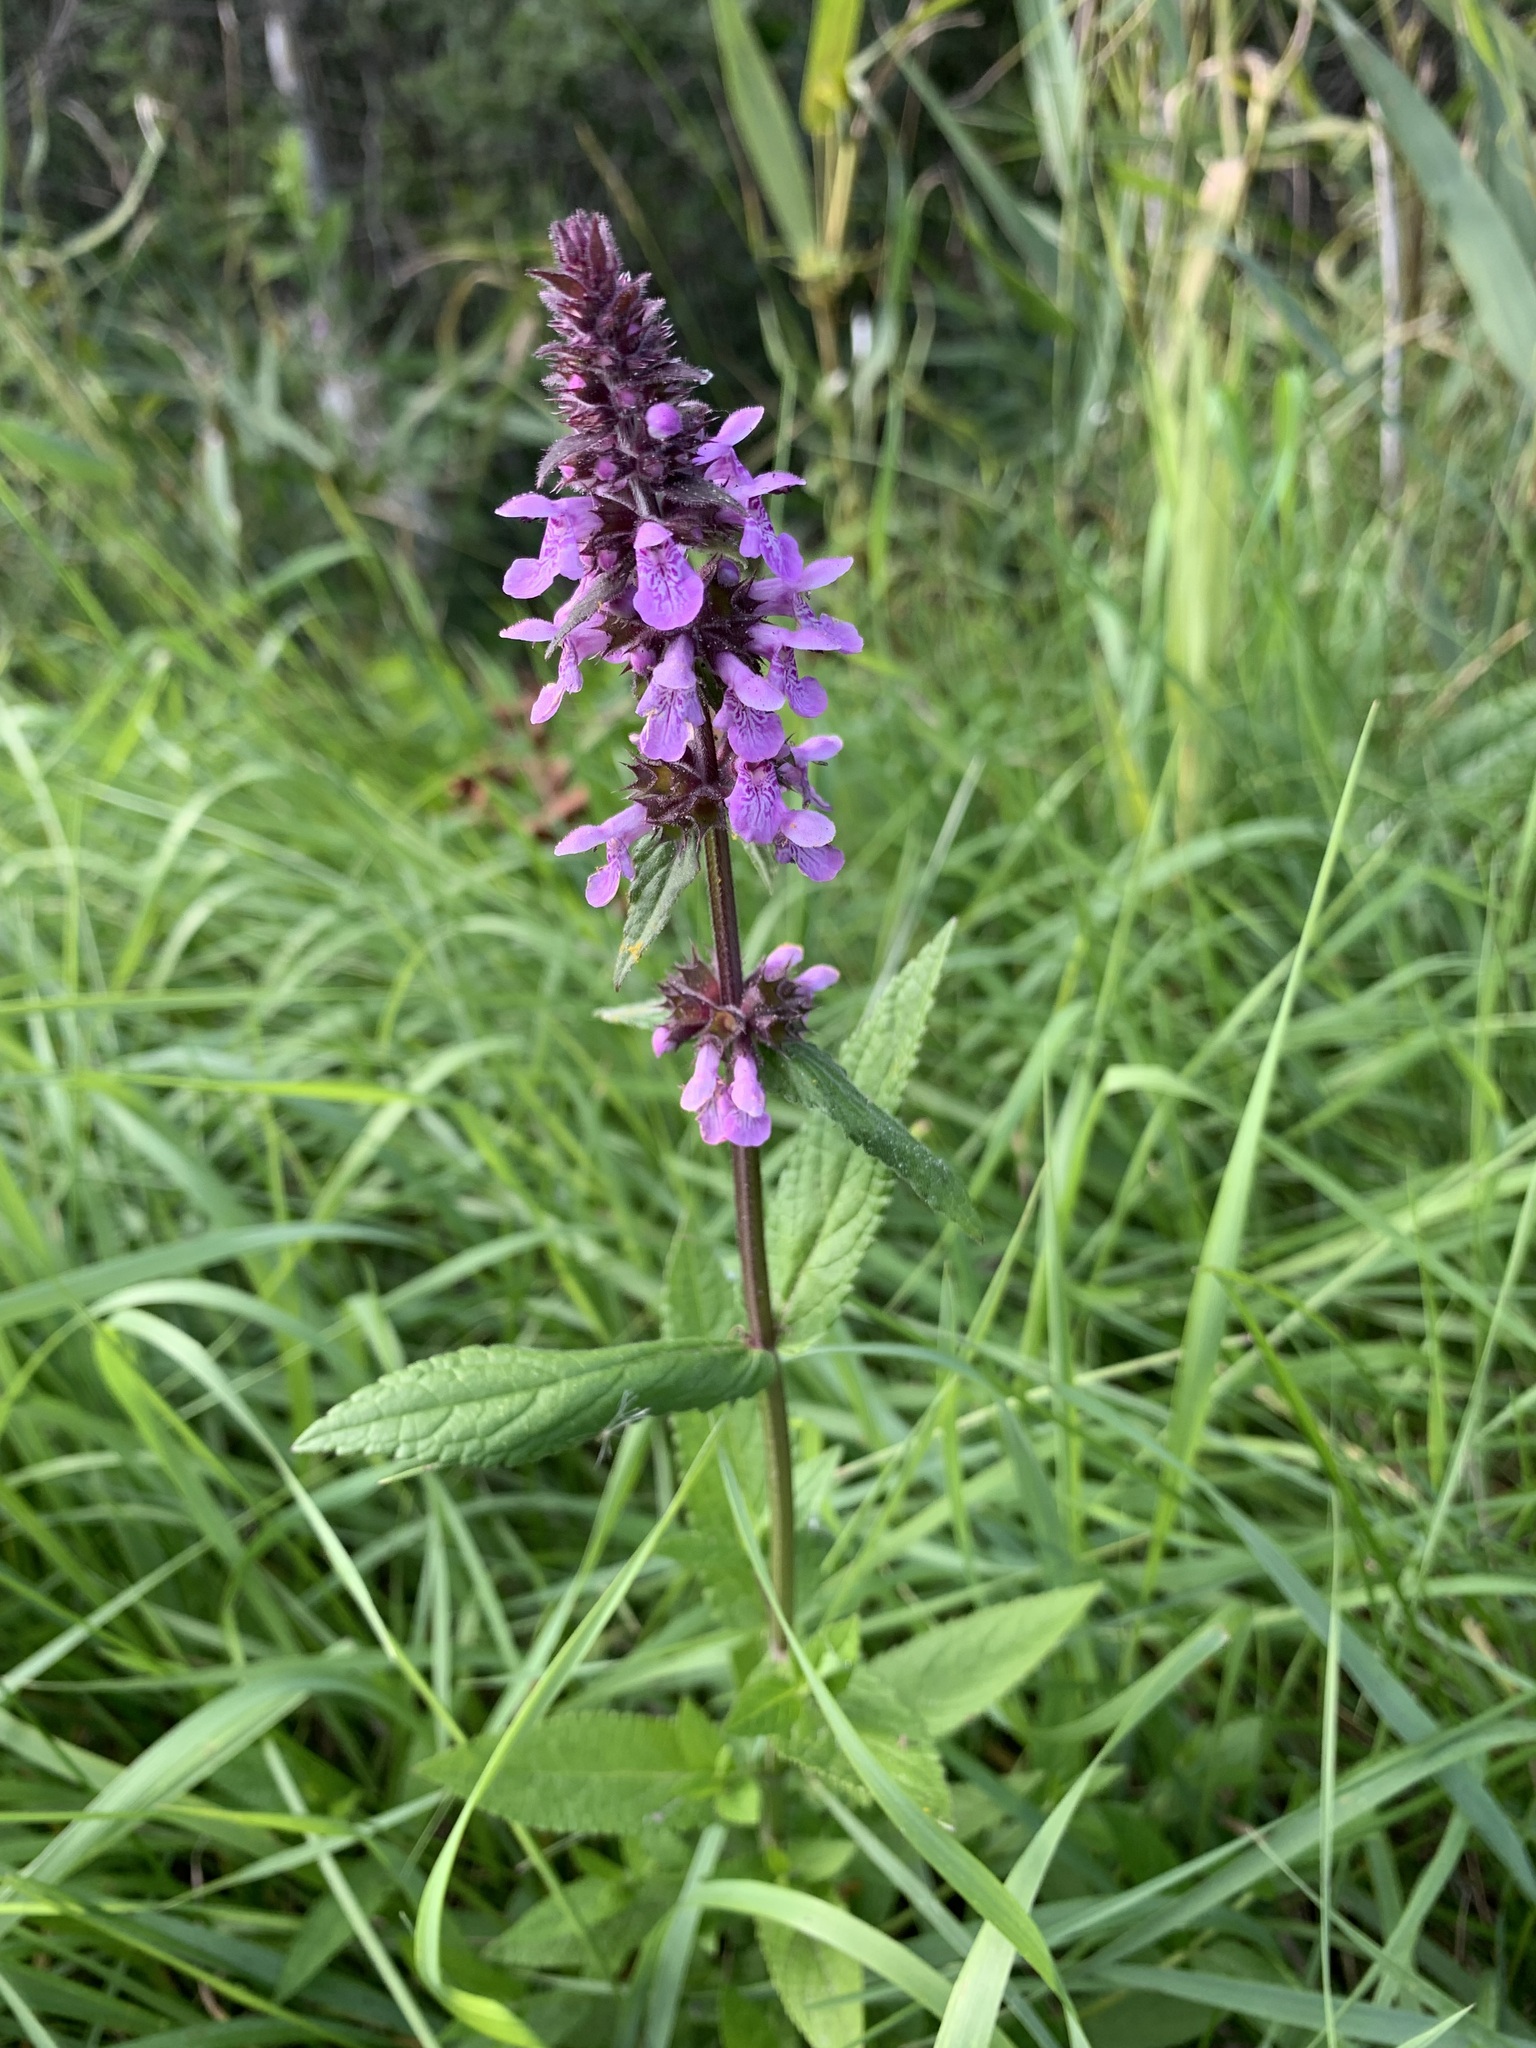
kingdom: Plantae
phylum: Tracheophyta
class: Magnoliopsida
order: Lamiales
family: Lamiaceae
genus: Stachys
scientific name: Stachys palustris
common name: Marsh woundwort
